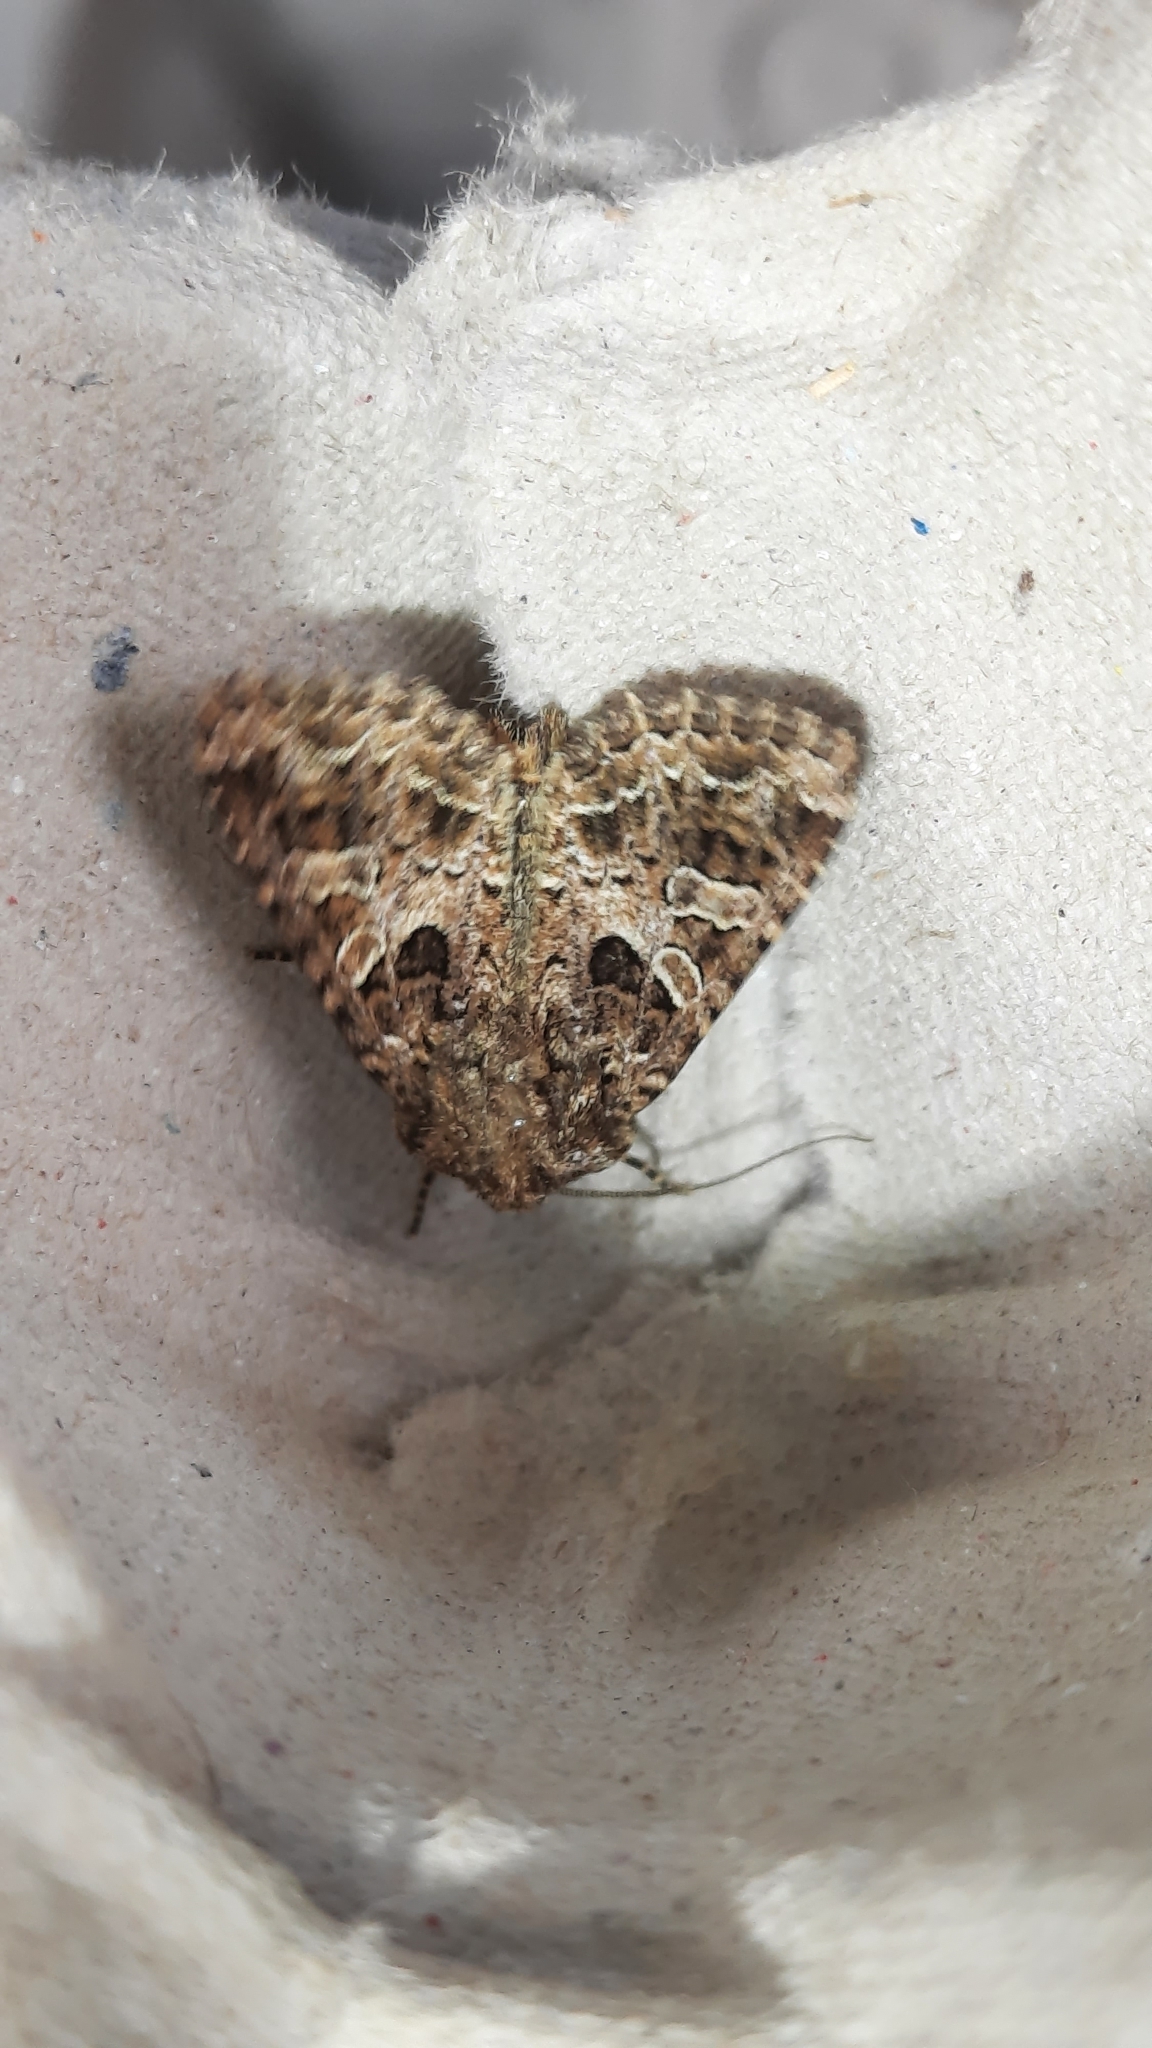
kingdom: Animalia
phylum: Arthropoda
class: Insecta
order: Lepidoptera
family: Noctuidae
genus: Hadena
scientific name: Hadena bicruris
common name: Lychnis
